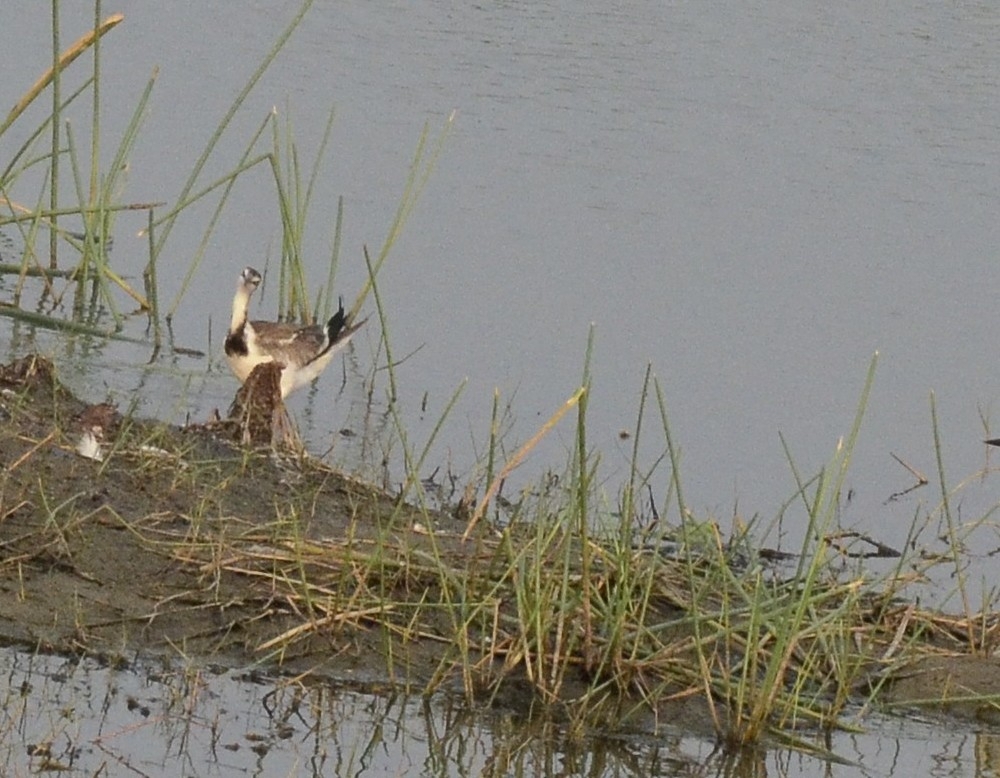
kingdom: Animalia
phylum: Chordata
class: Aves
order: Charadriiformes
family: Jacanidae
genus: Hydrophasianus
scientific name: Hydrophasianus chirurgus
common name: Pheasant-tailed jacana
